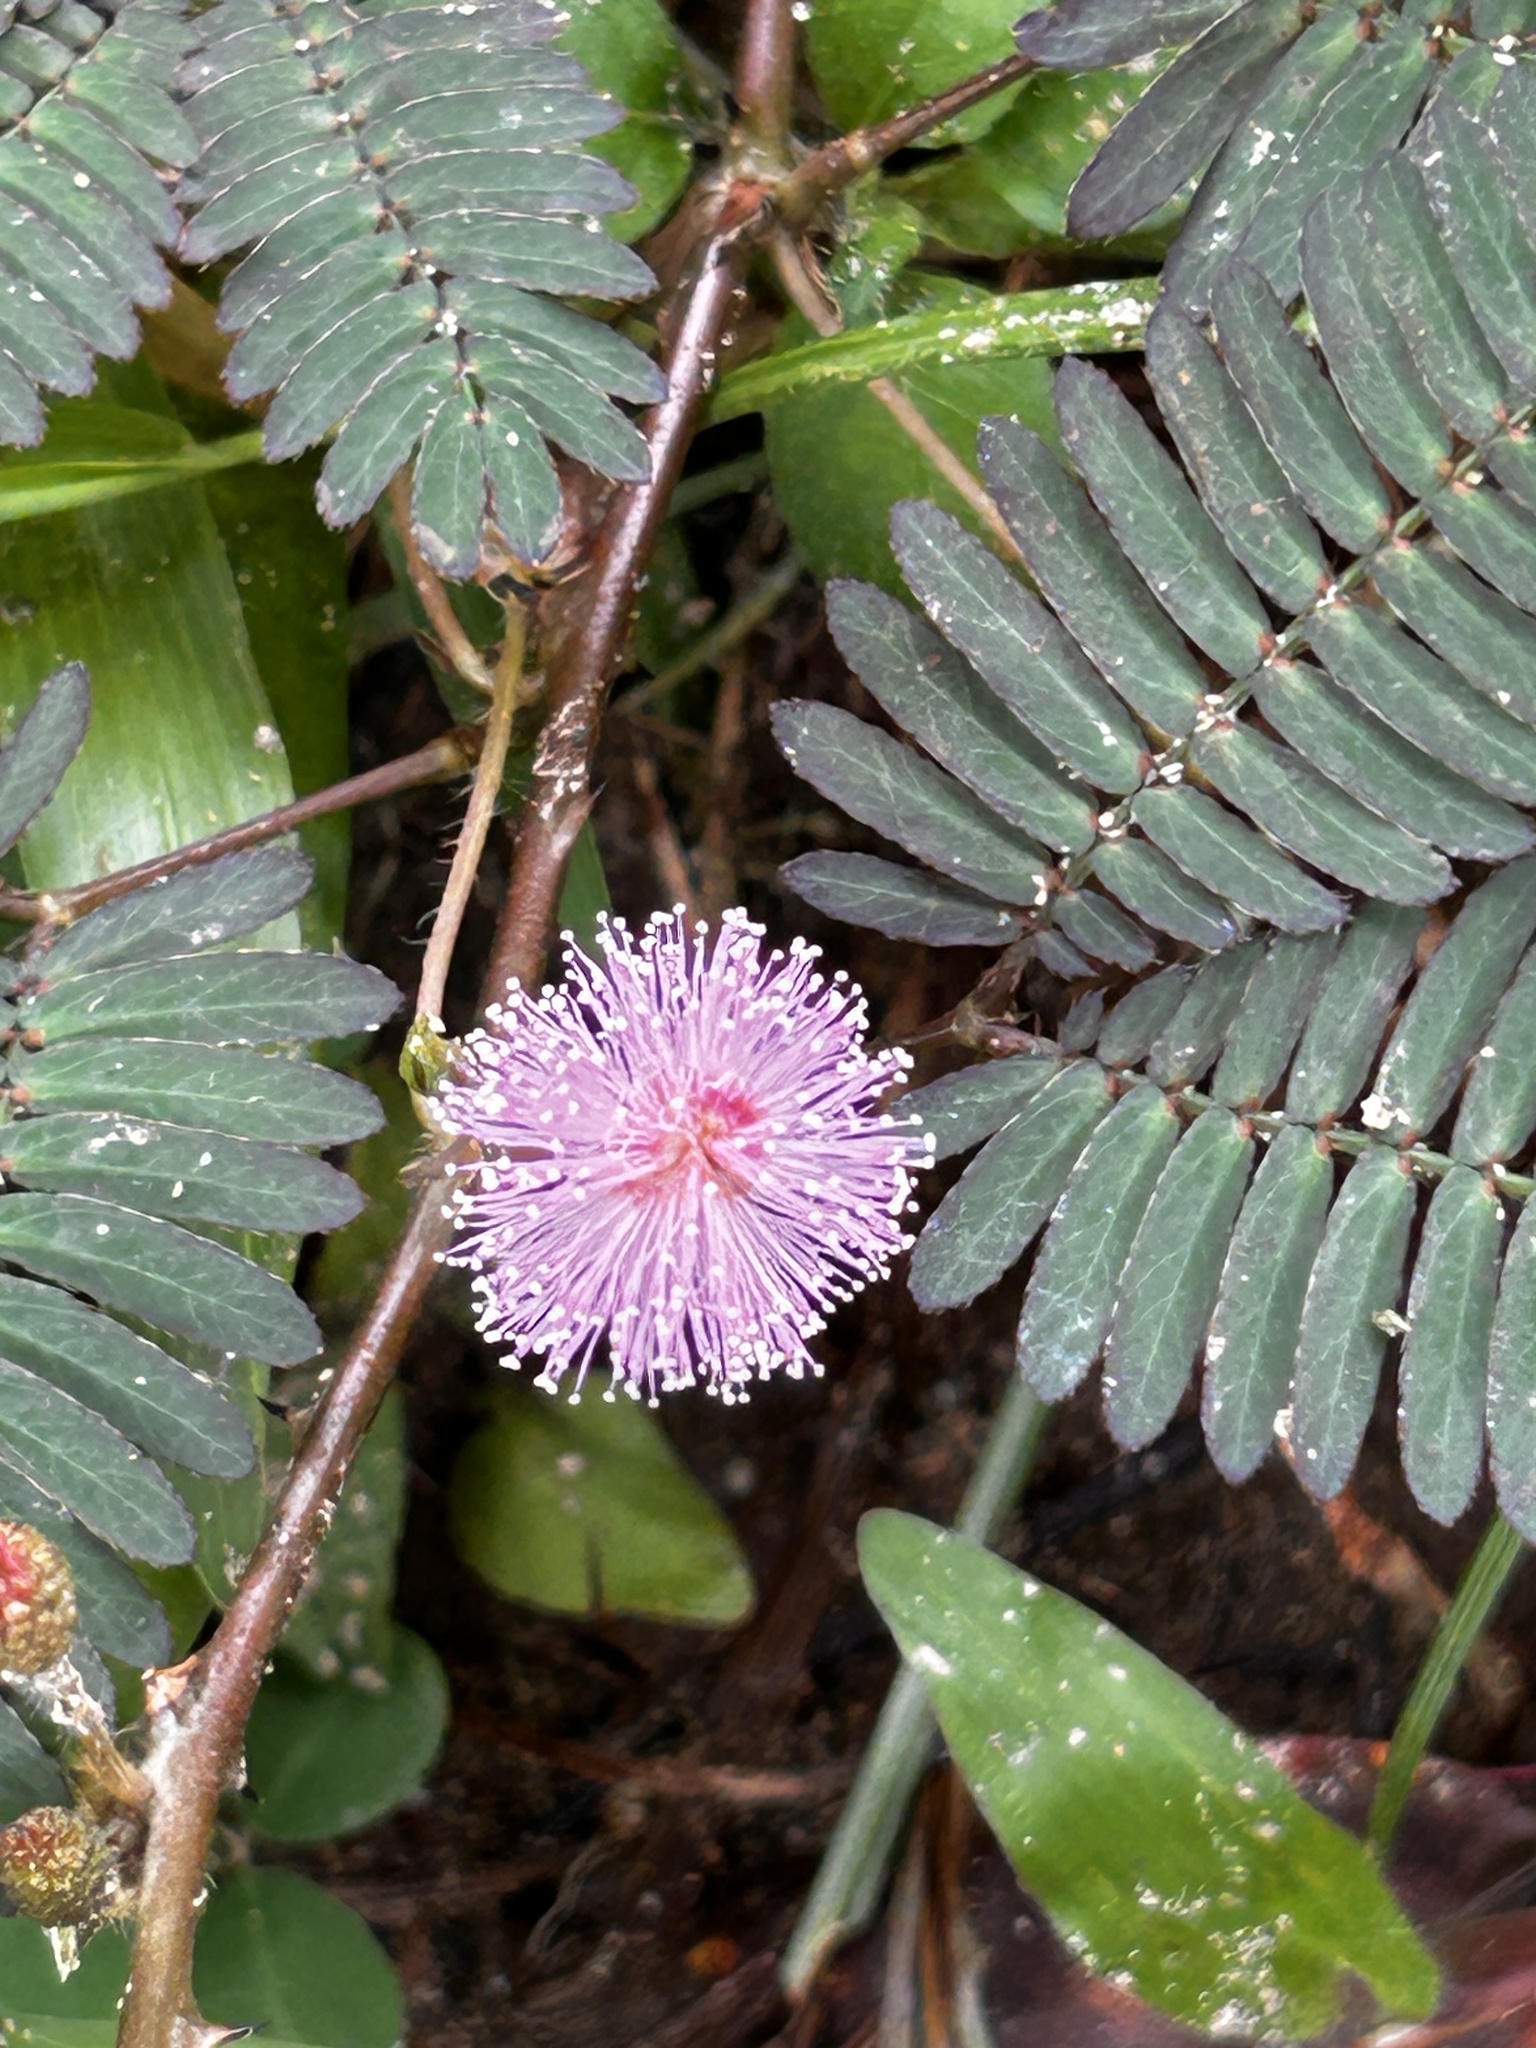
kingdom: Plantae
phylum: Tracheophyta
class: Magnoliopsida
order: Fabales
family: Fabaceae
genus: Mimosa
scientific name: Mimosa pudica
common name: Sensitive plant
